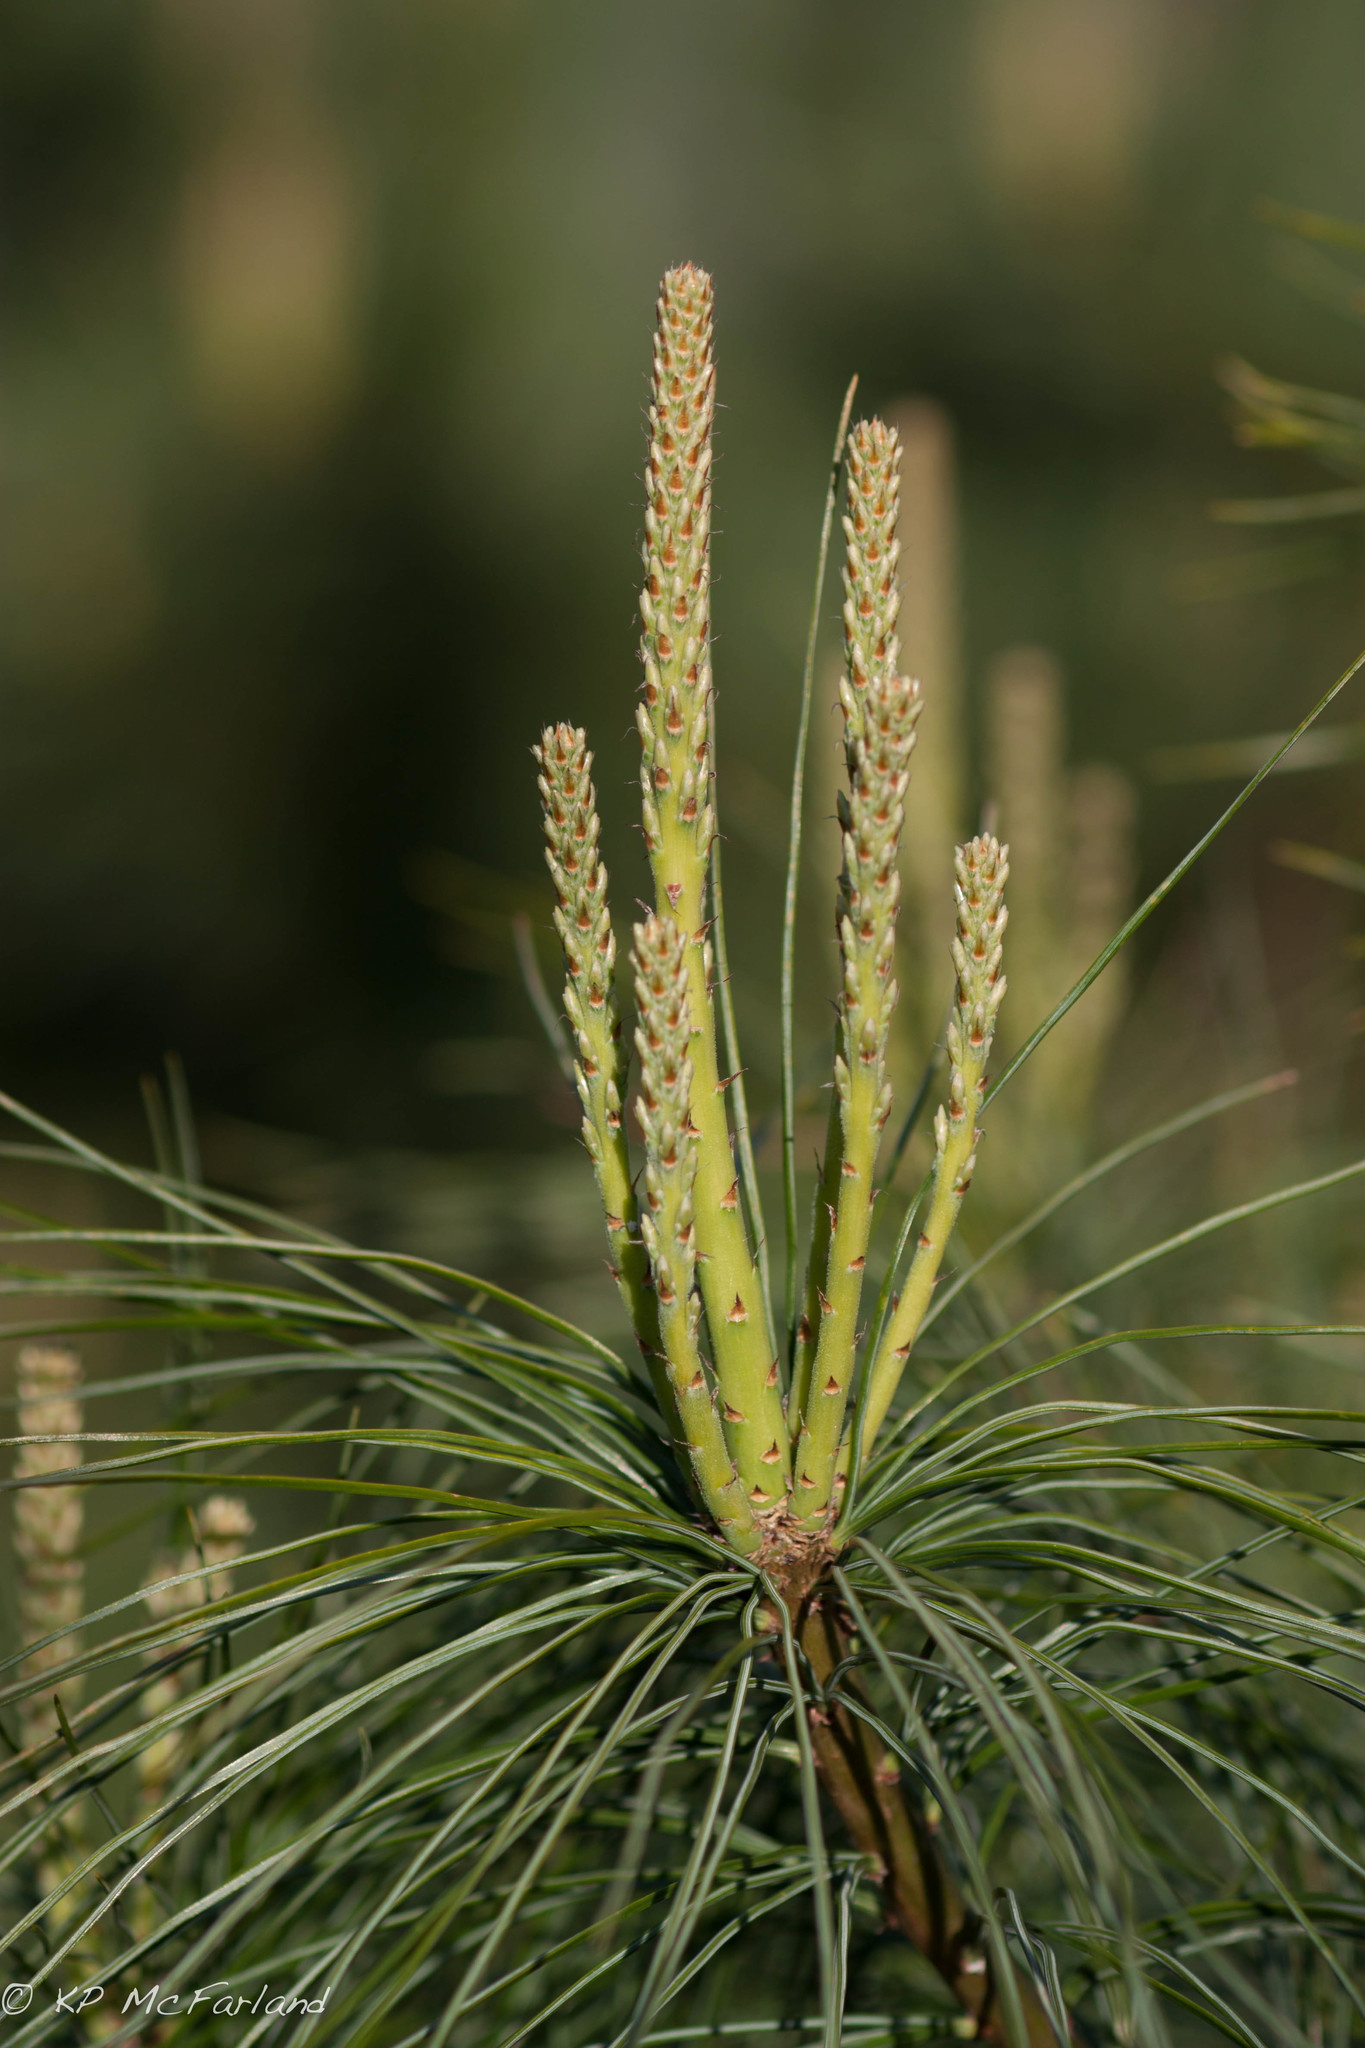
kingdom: Plantae
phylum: Tracheophyta
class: Pinopsida
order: Pinales
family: Pinaceae
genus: Pinus
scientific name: Pinus strobus
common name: Weymouth pine
